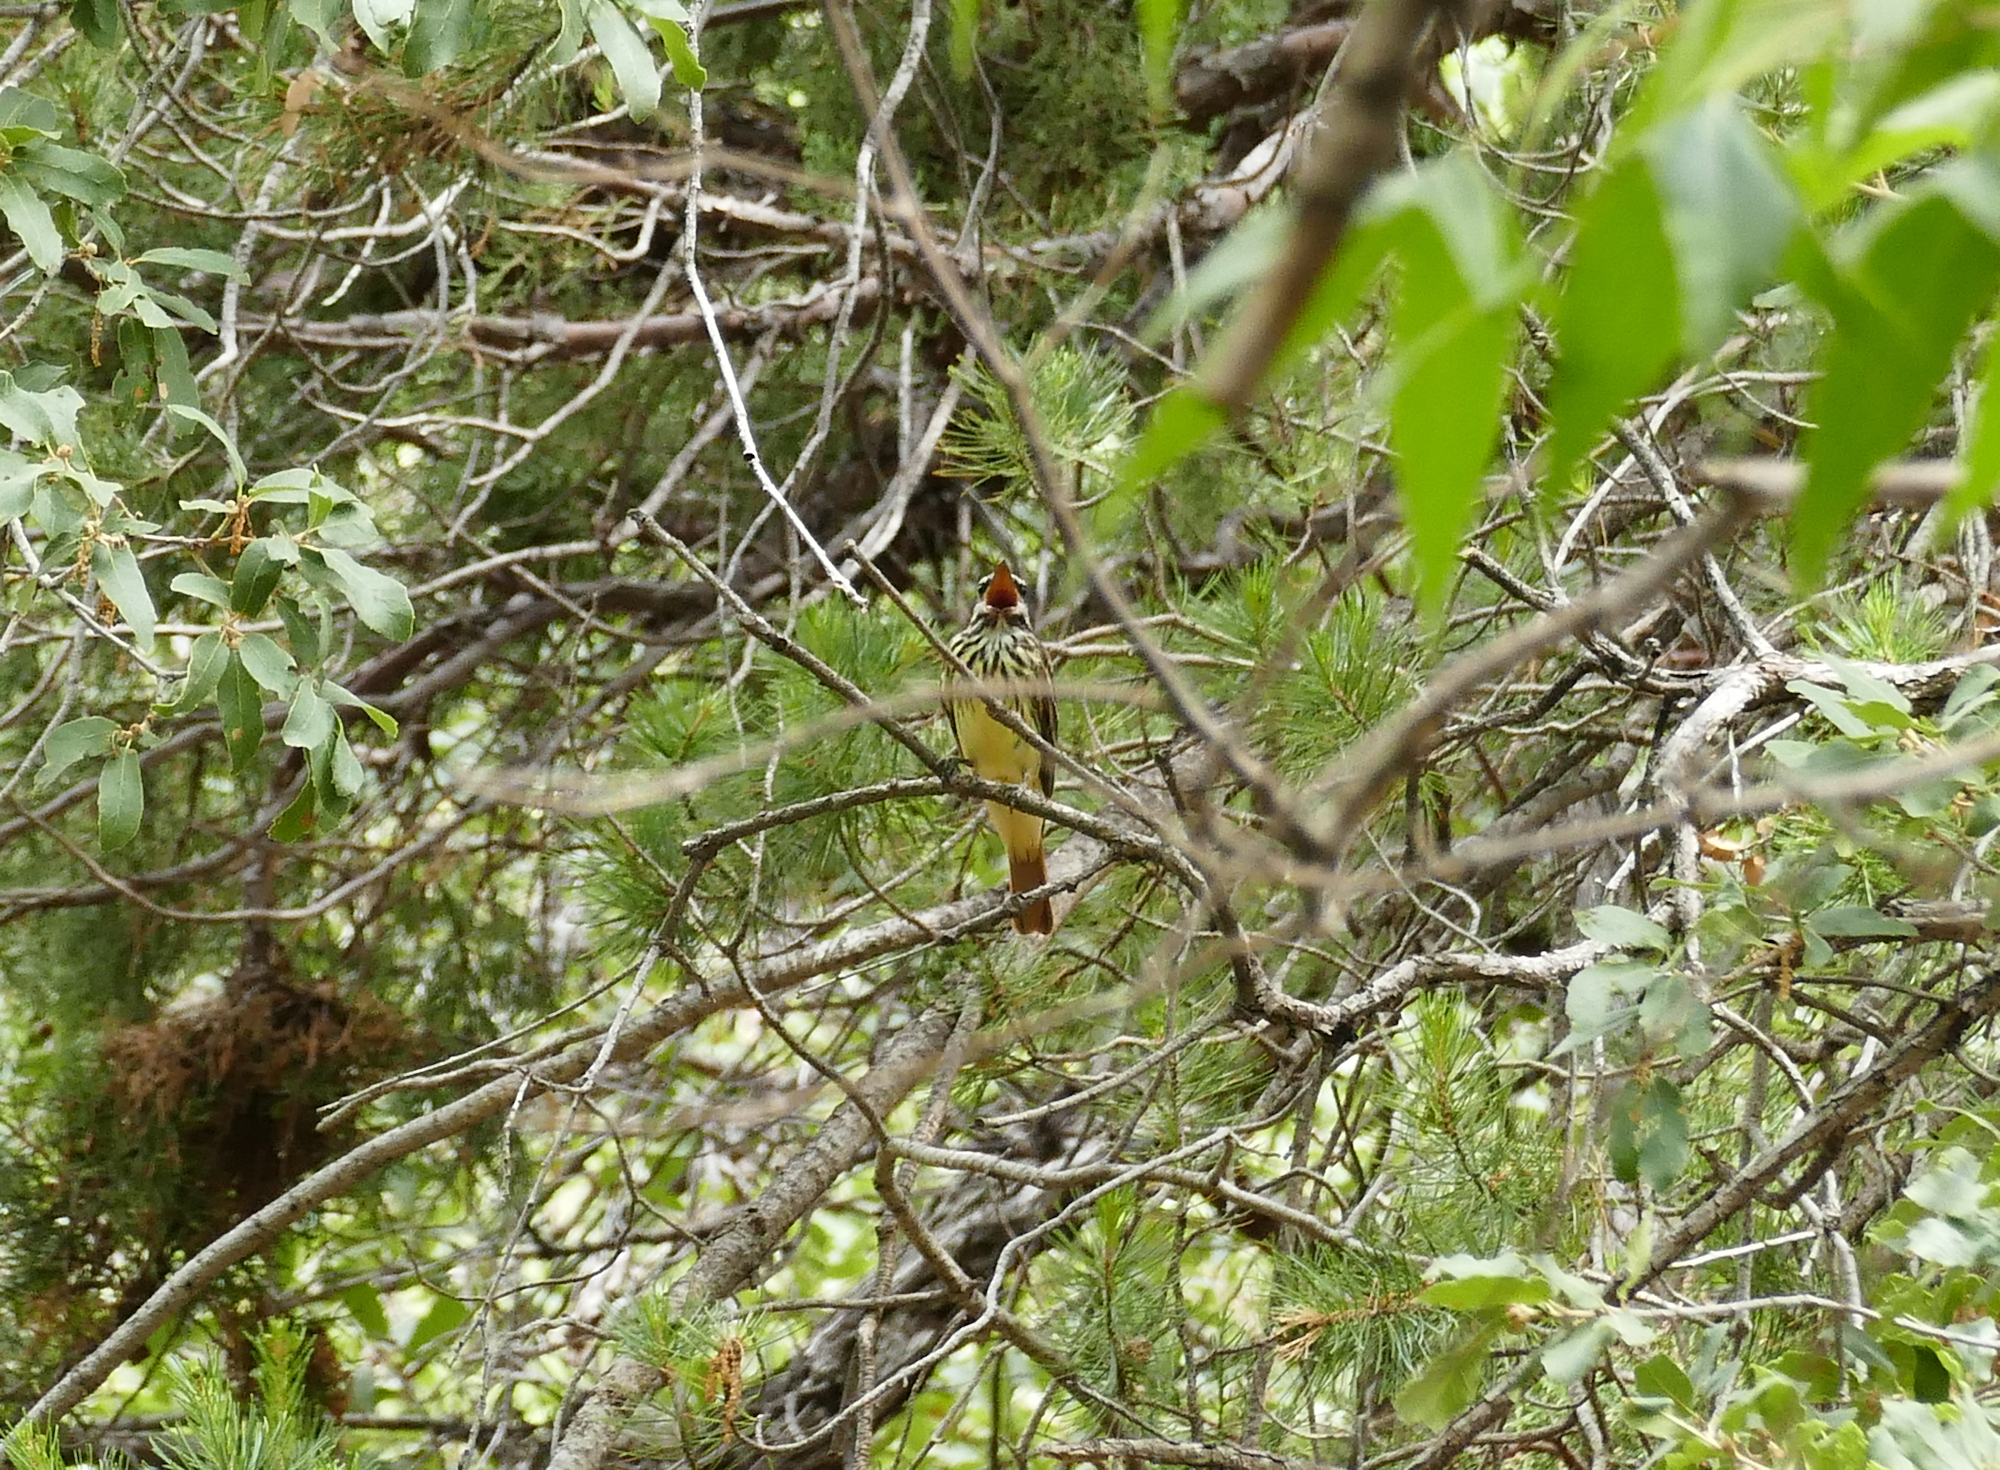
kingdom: Animalia
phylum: Chordata
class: Aves
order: Passeriformes
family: Tyrannidae
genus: Myiodynastes
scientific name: Myiodynastes luteiventris
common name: Sulphur-bellied flycatcher
